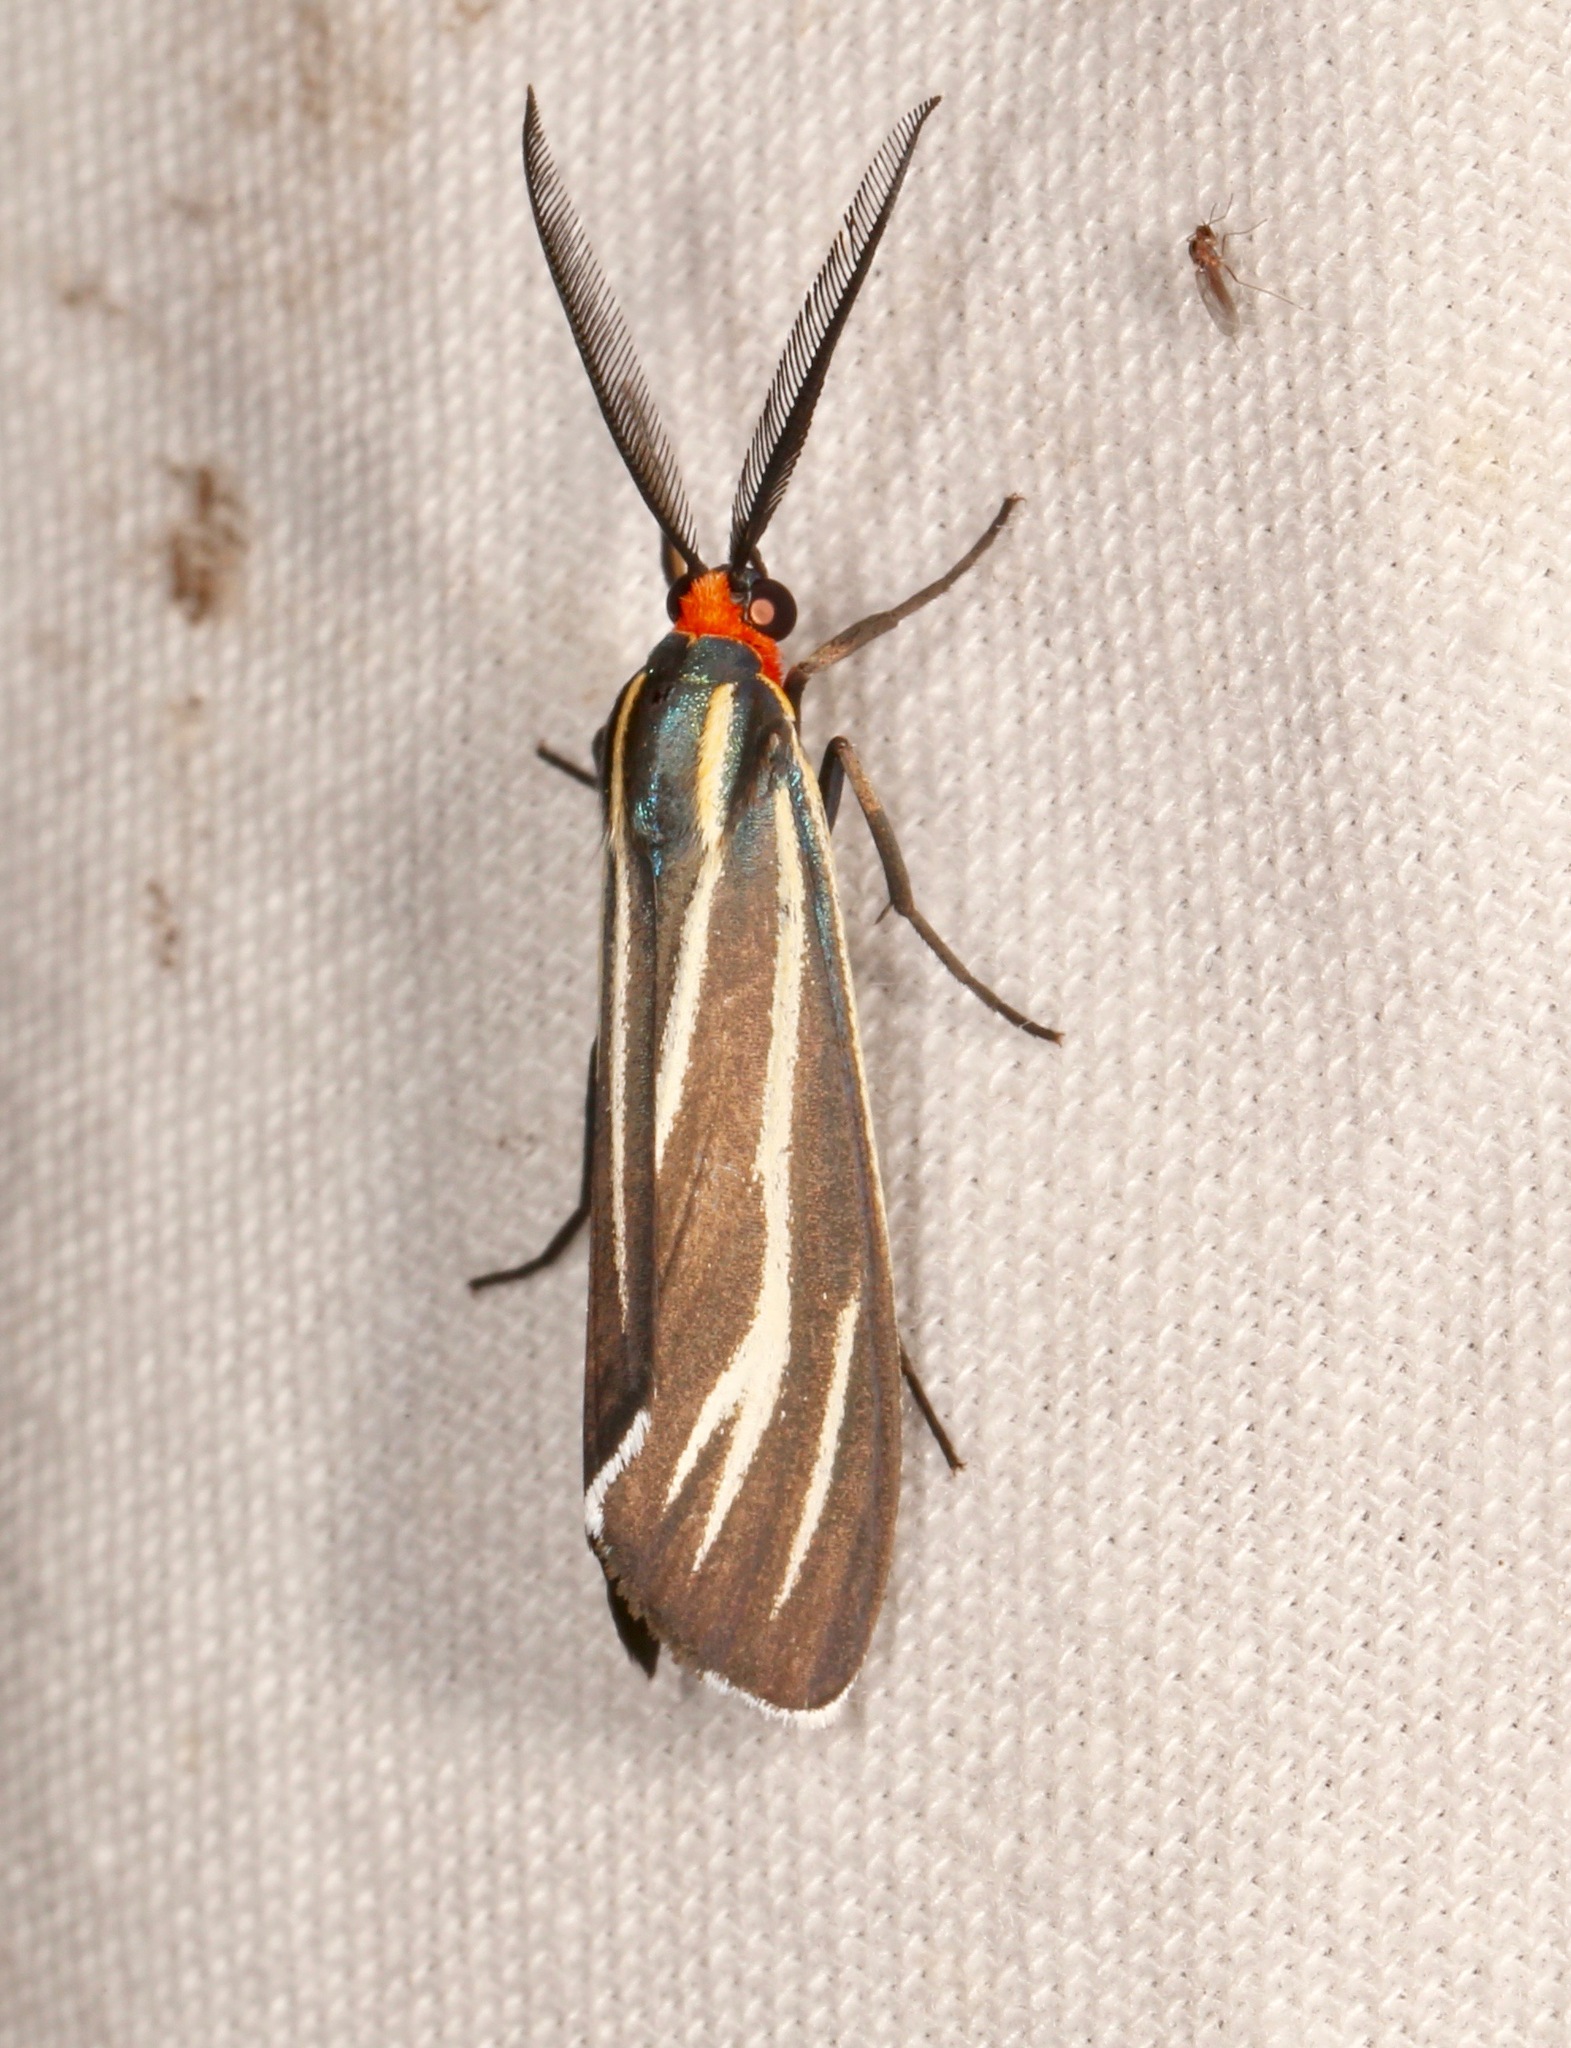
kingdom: Animalia
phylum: Arthropoda
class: Insecta
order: Lepidoptera
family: Erebidae
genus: Ctenucha
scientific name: Ctenucha venosa
